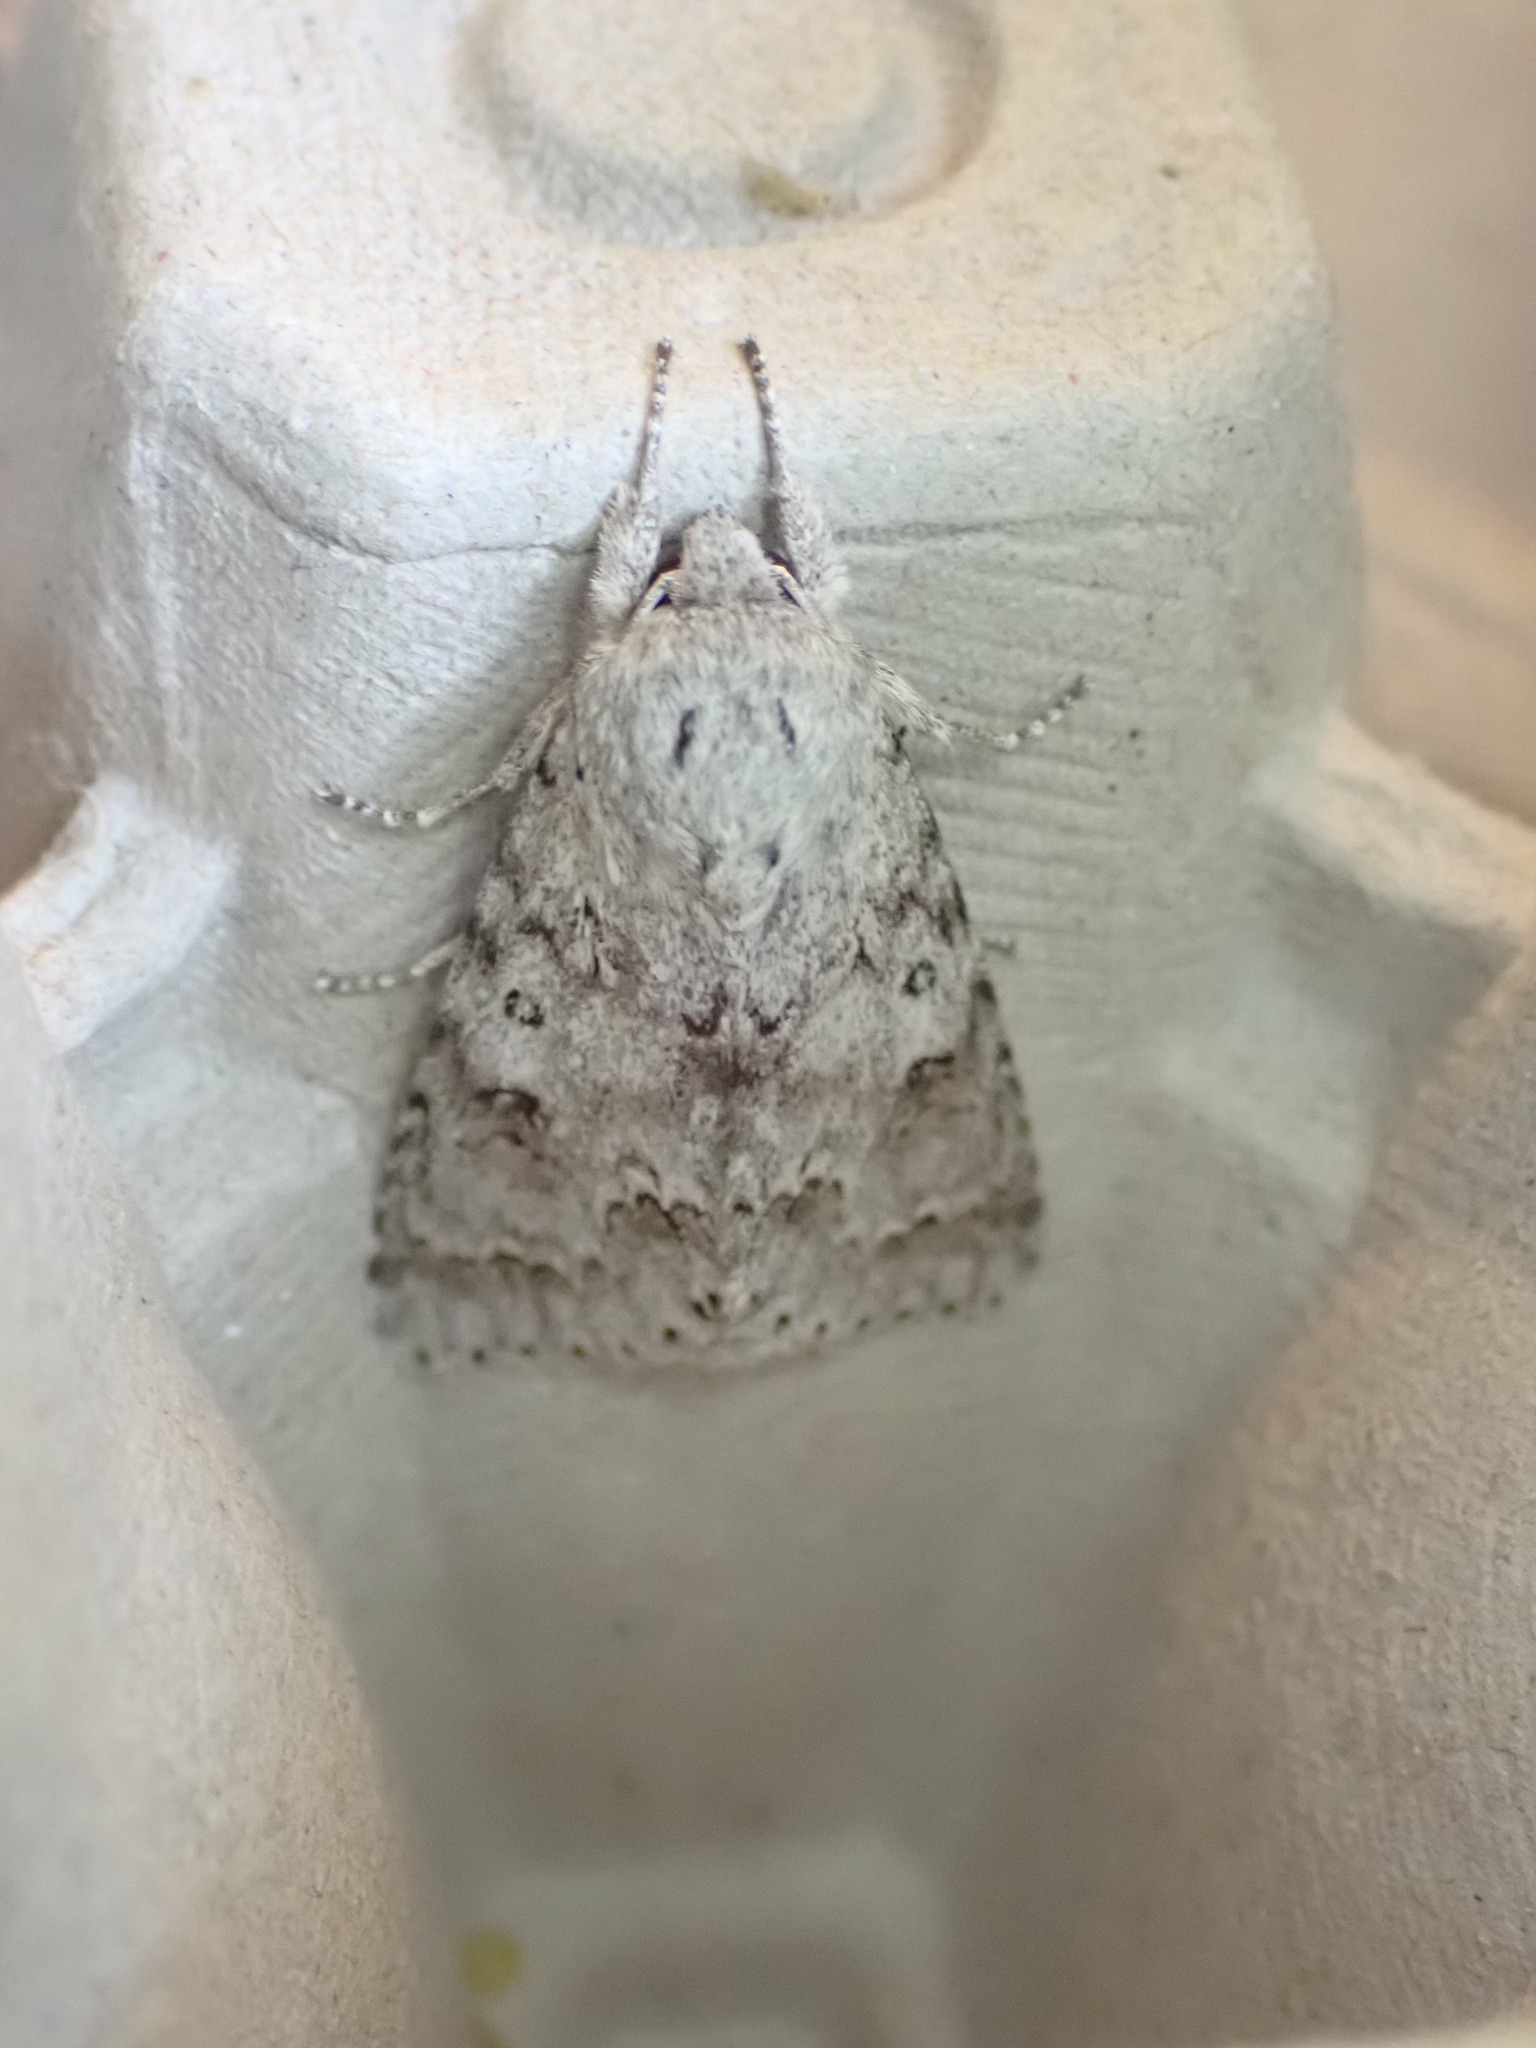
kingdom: Animalia
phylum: Arthropoda
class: Insecta
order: Lepidoptera
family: Noctuidae
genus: Acronicta
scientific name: Acronicta insita
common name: Large gray dagger
